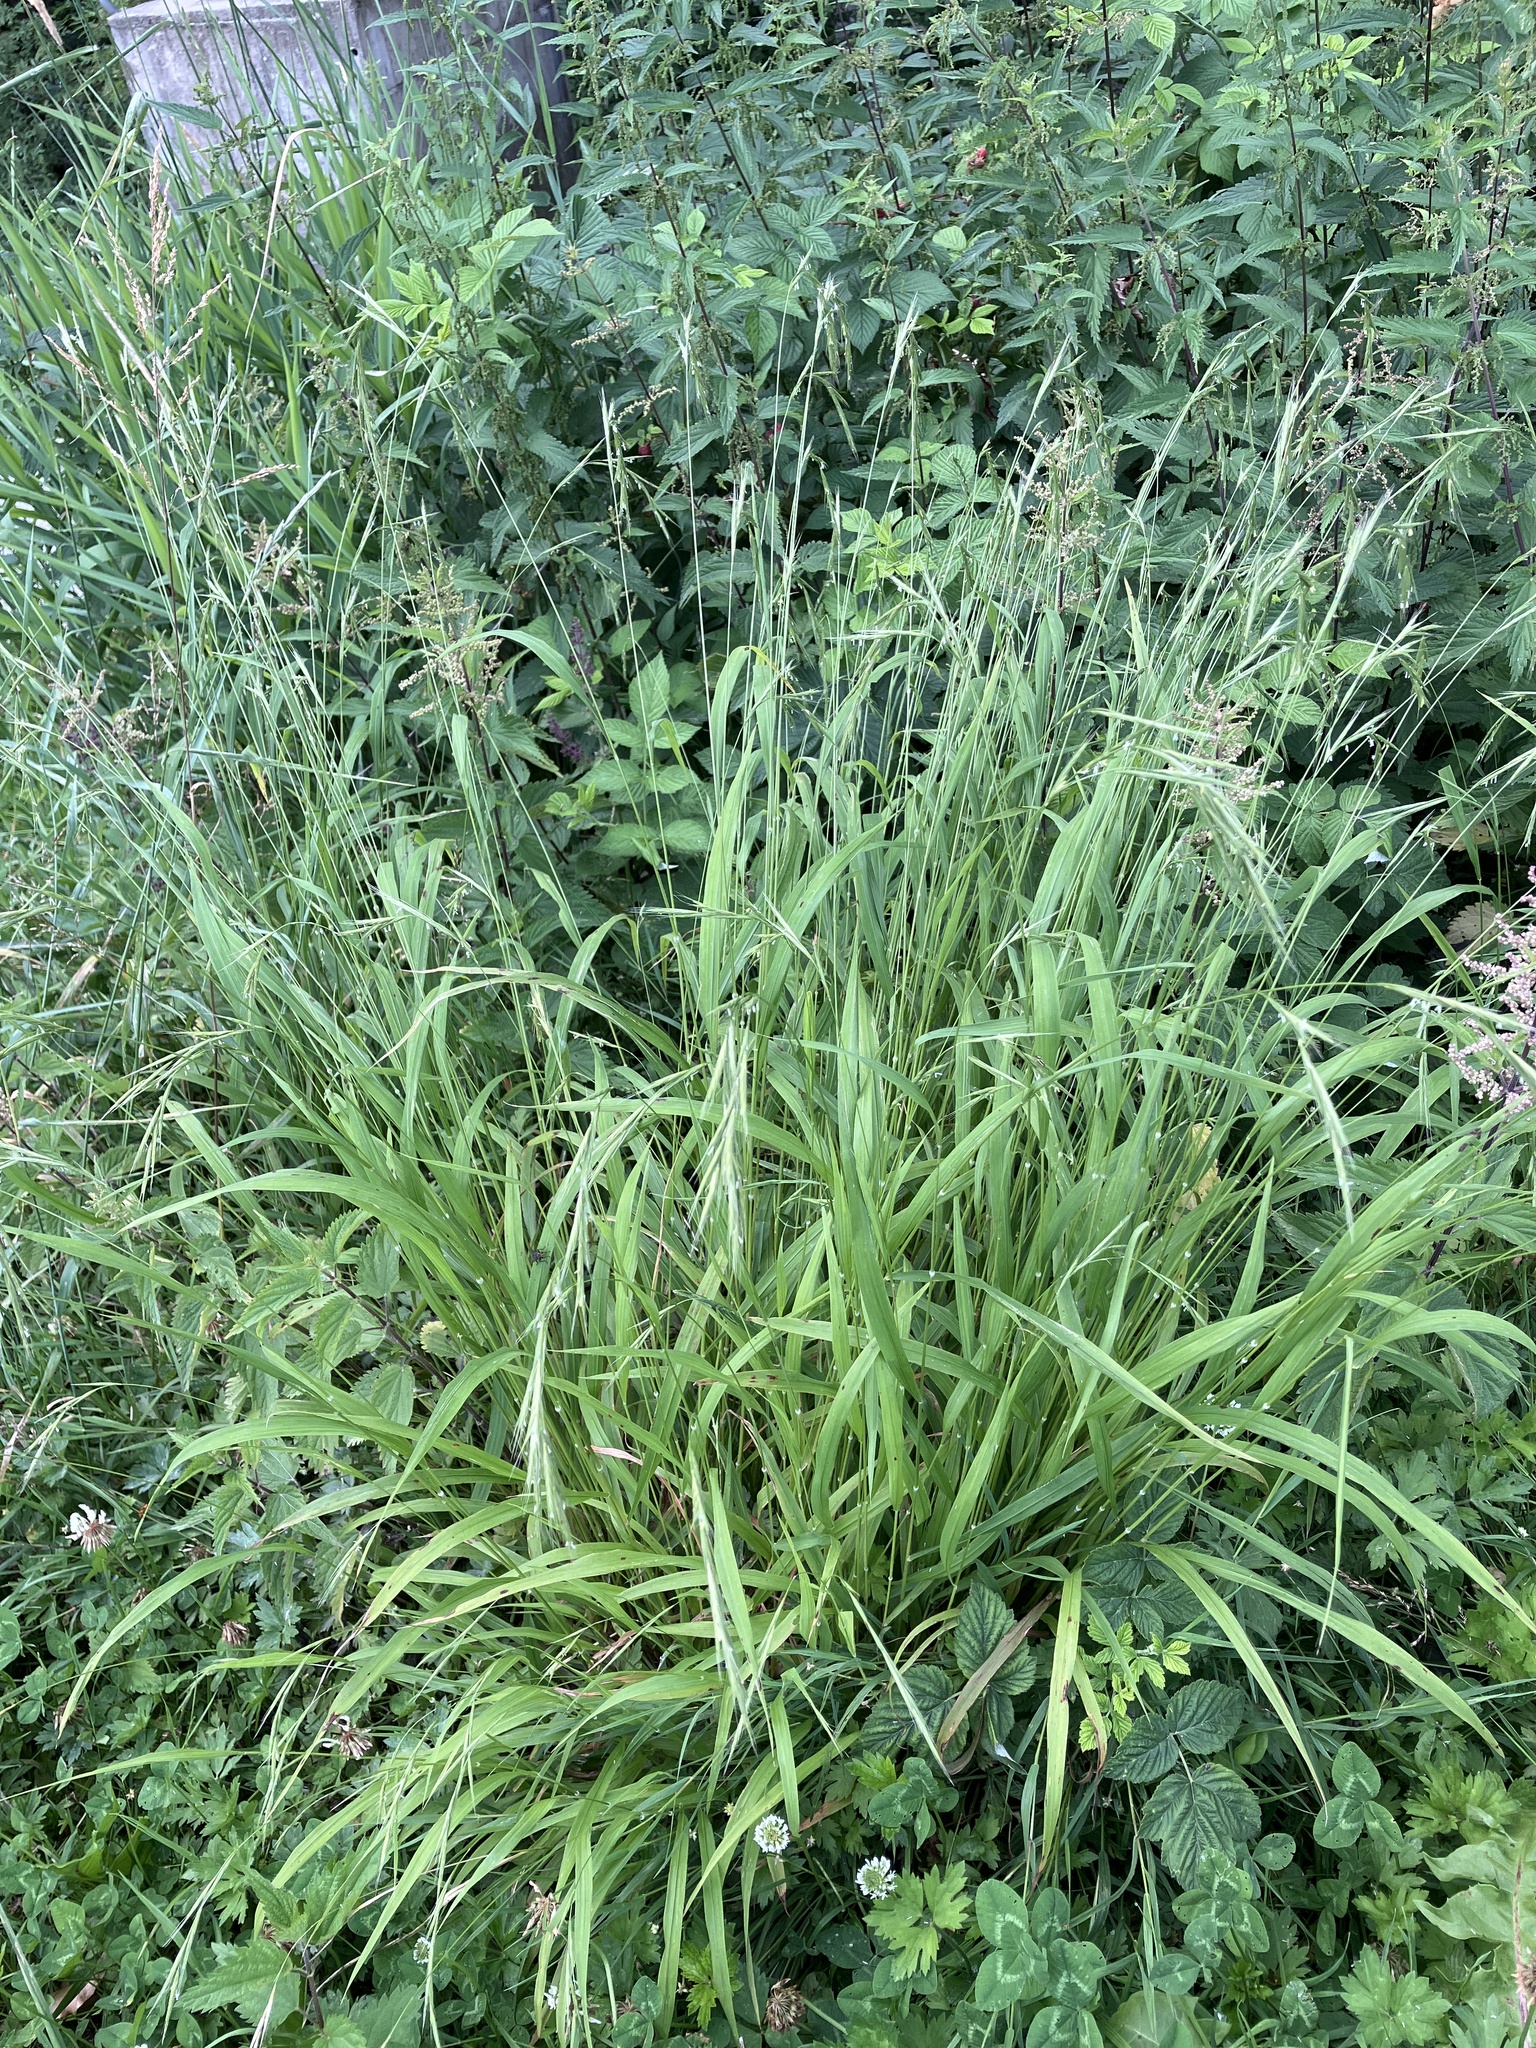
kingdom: Plantae
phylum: Tracheophyta
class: Liliopsida
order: Poales
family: Poaceae
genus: Brachypodium
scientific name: Brachypodium sylvaticum
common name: False-brome
